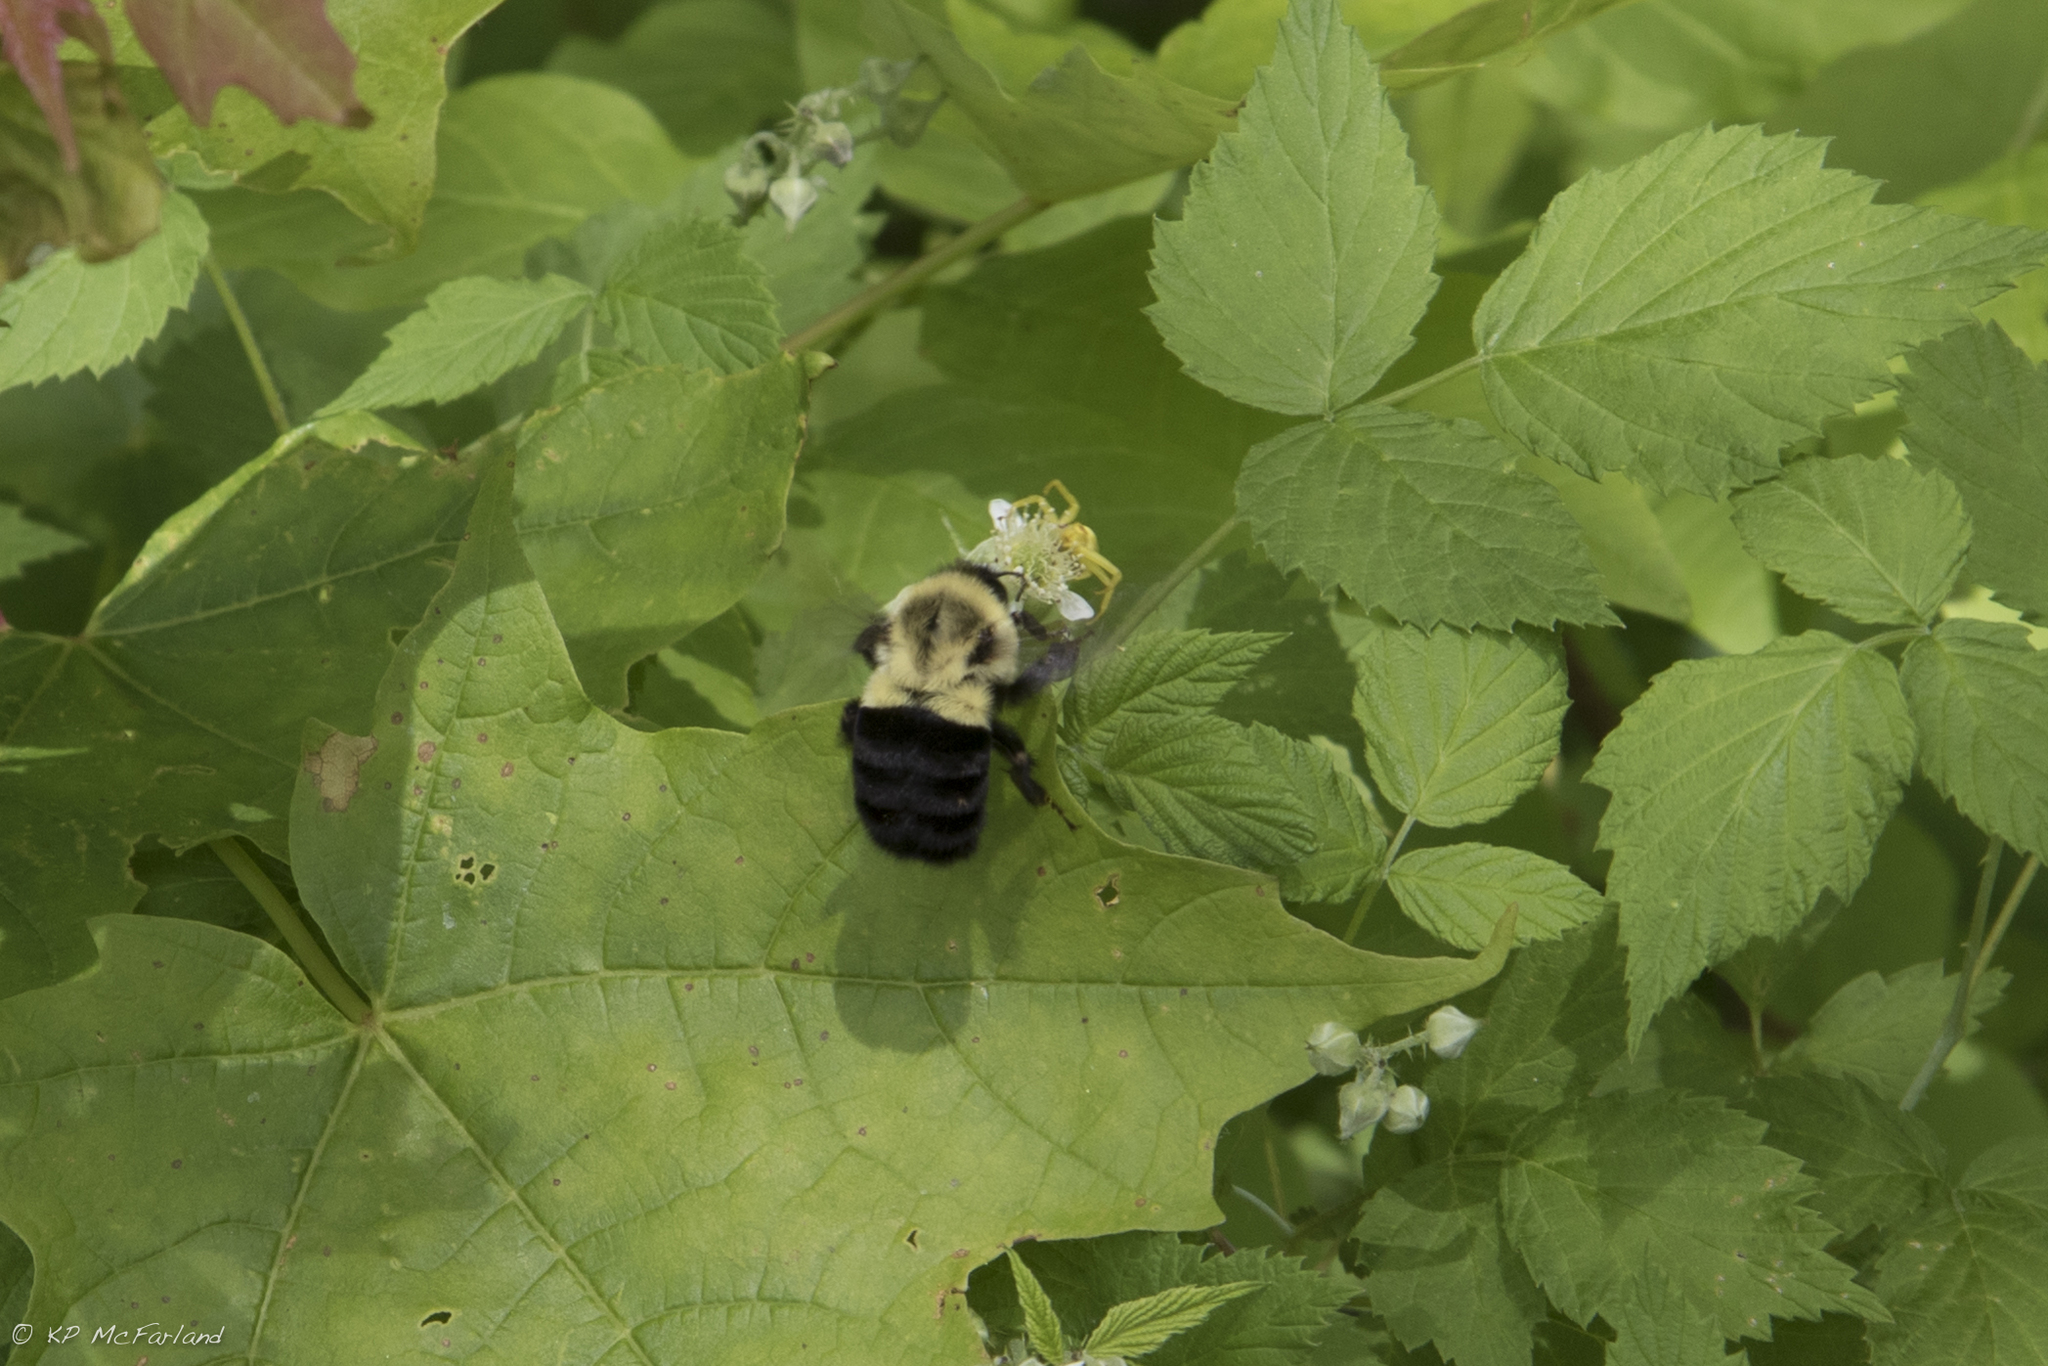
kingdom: Animalia
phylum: Arthropoda
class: Insecta
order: Hymenoptera
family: Apidae
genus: Bombus
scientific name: Bombus impatiens
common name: Common eastern bumble bee
